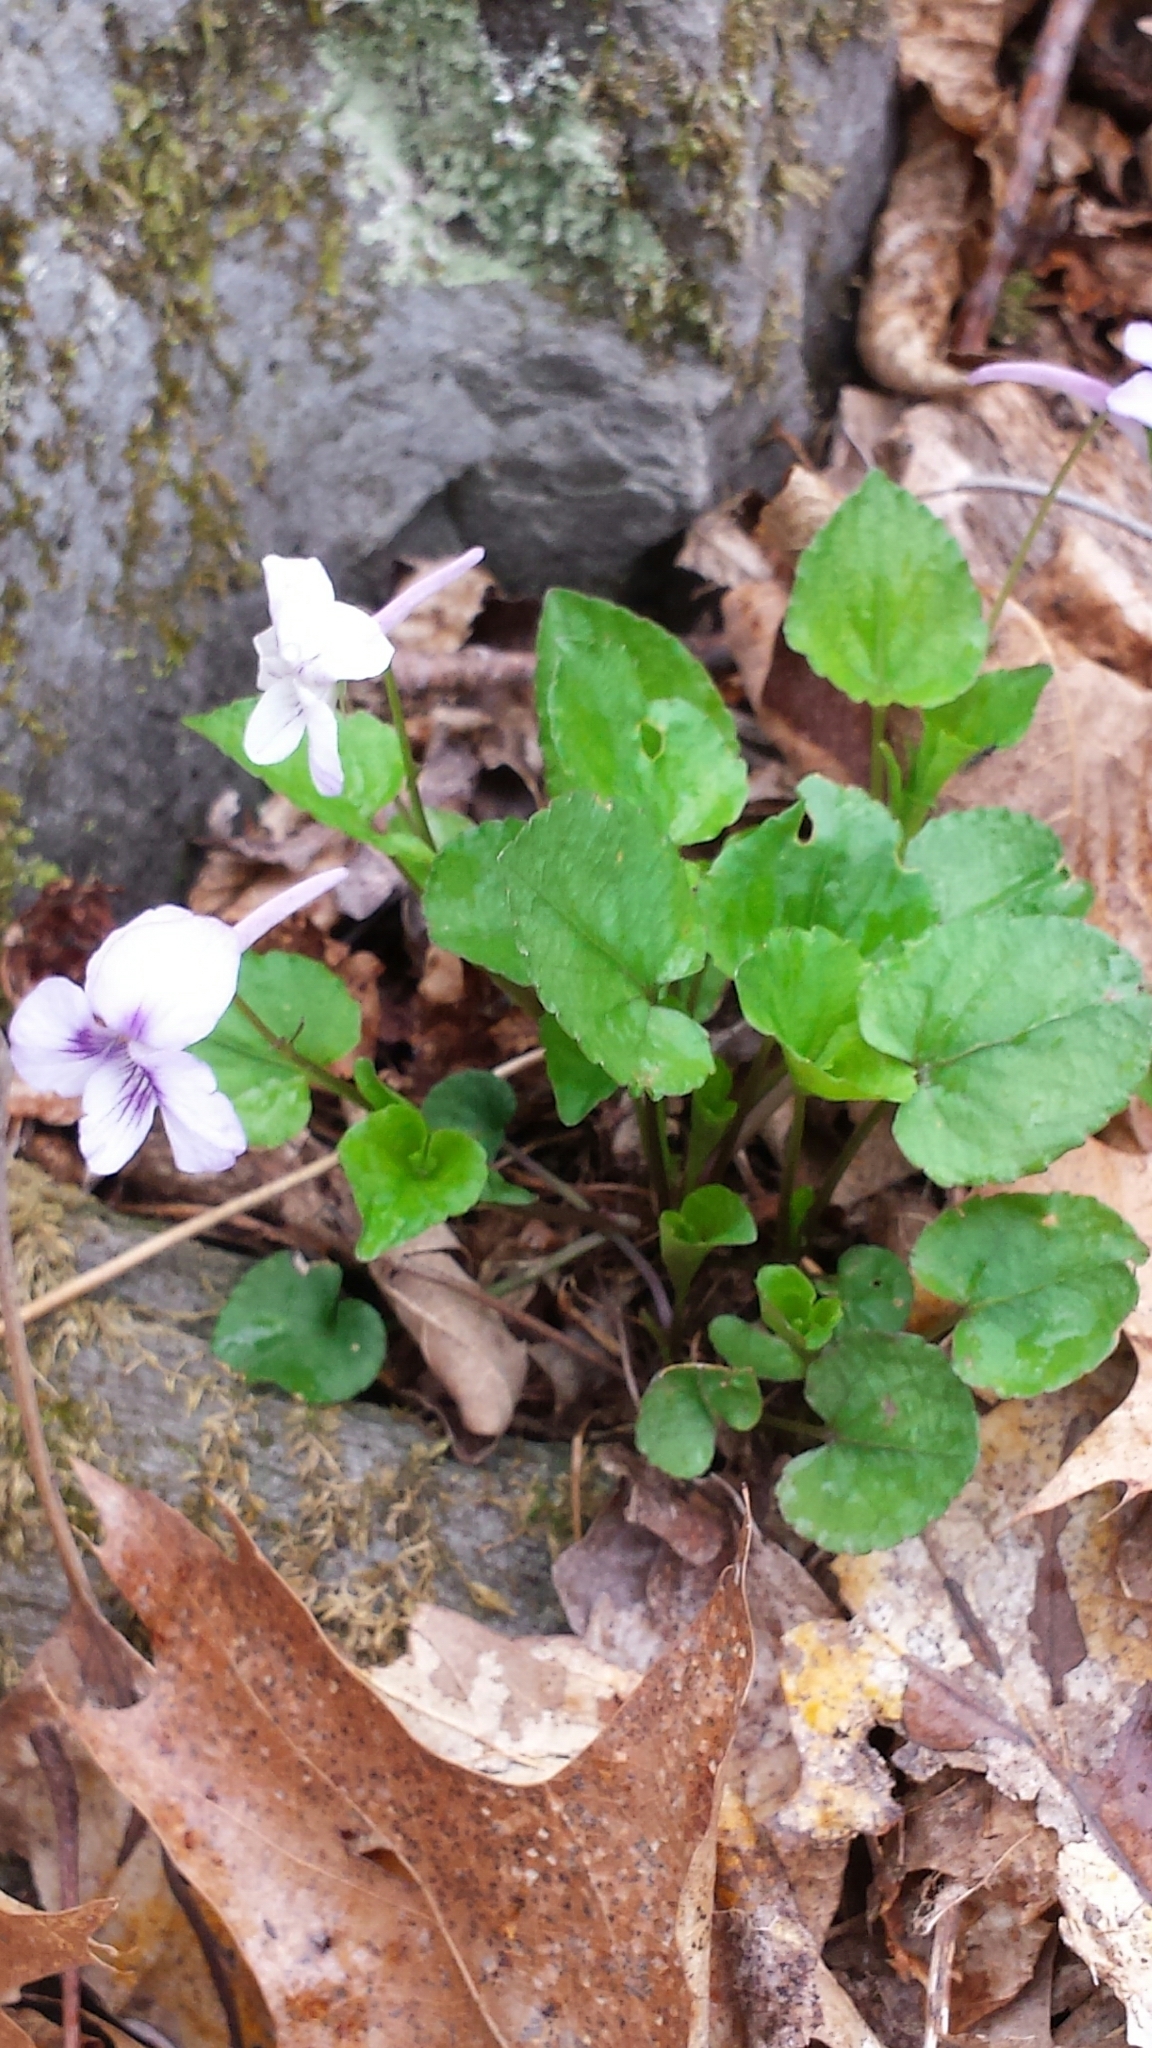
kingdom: Plantae
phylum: Tracheophyta
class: Magnoliopsida
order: Malpighiales
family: Violaceae
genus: Viola
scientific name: Viola rostrata
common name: Long-spur violet
